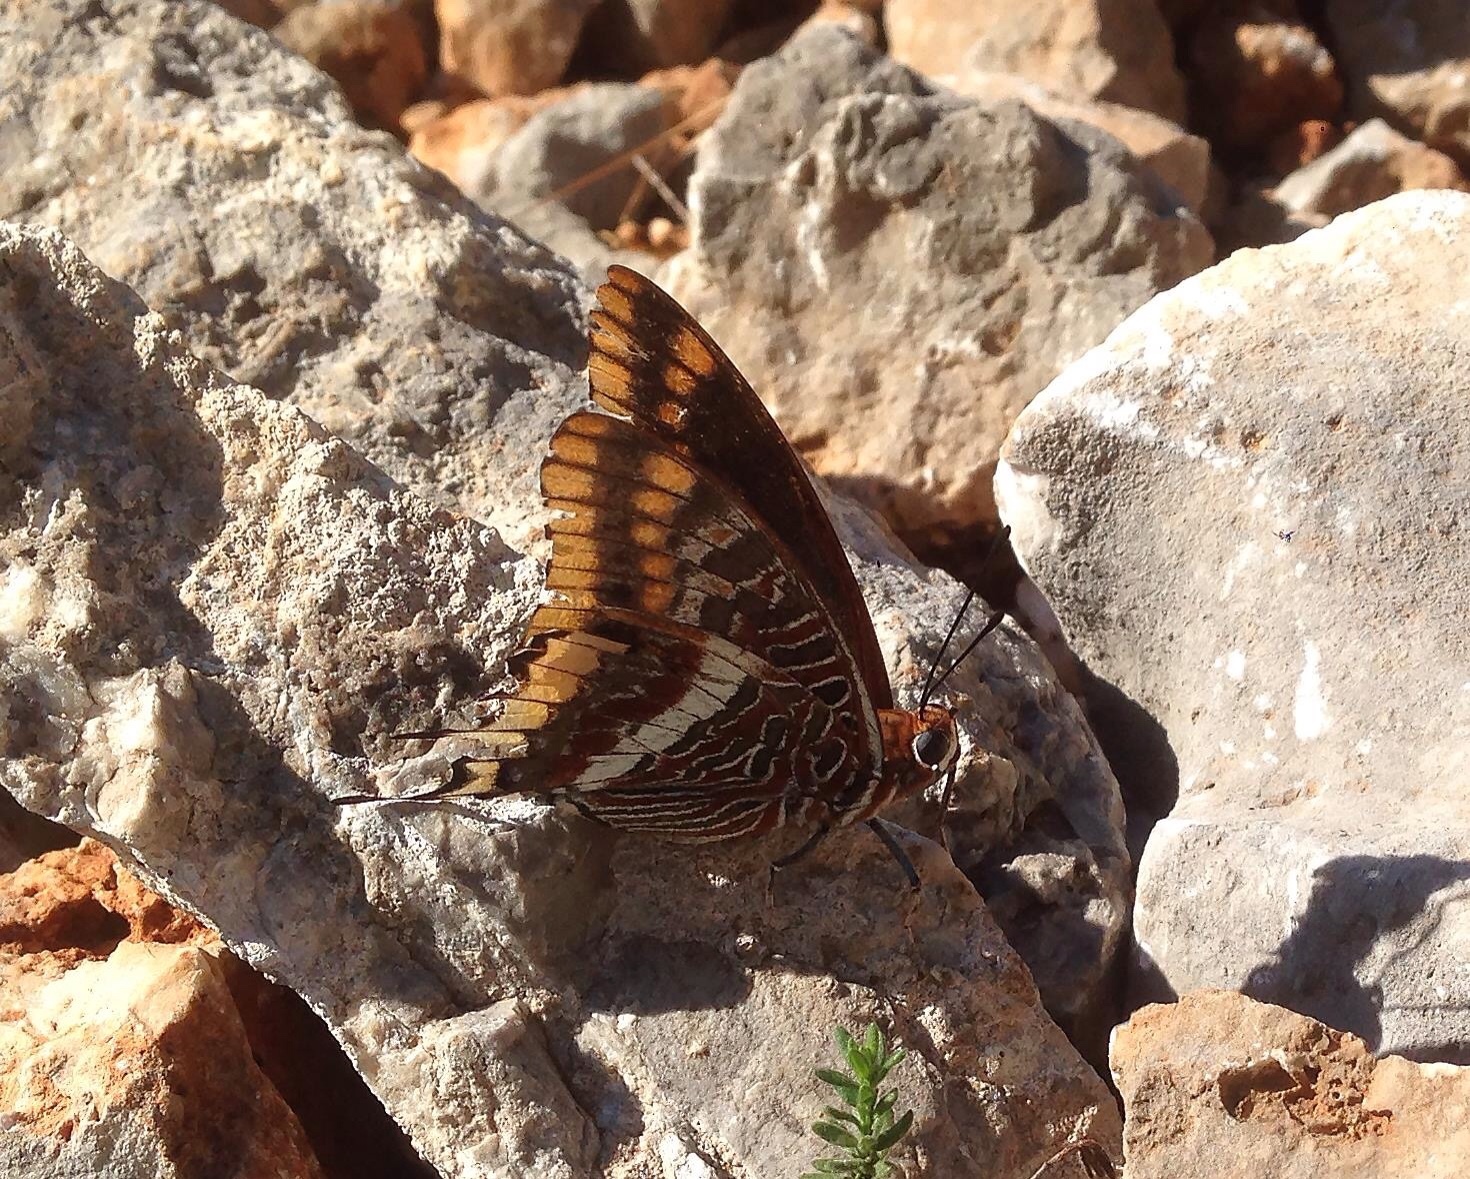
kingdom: Animalia
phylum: Arthropoda
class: Insecta
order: Lepidoptera
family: Nymphalidae
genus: Charaxes
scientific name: Charaxes jasius
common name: Two tailed pasha
